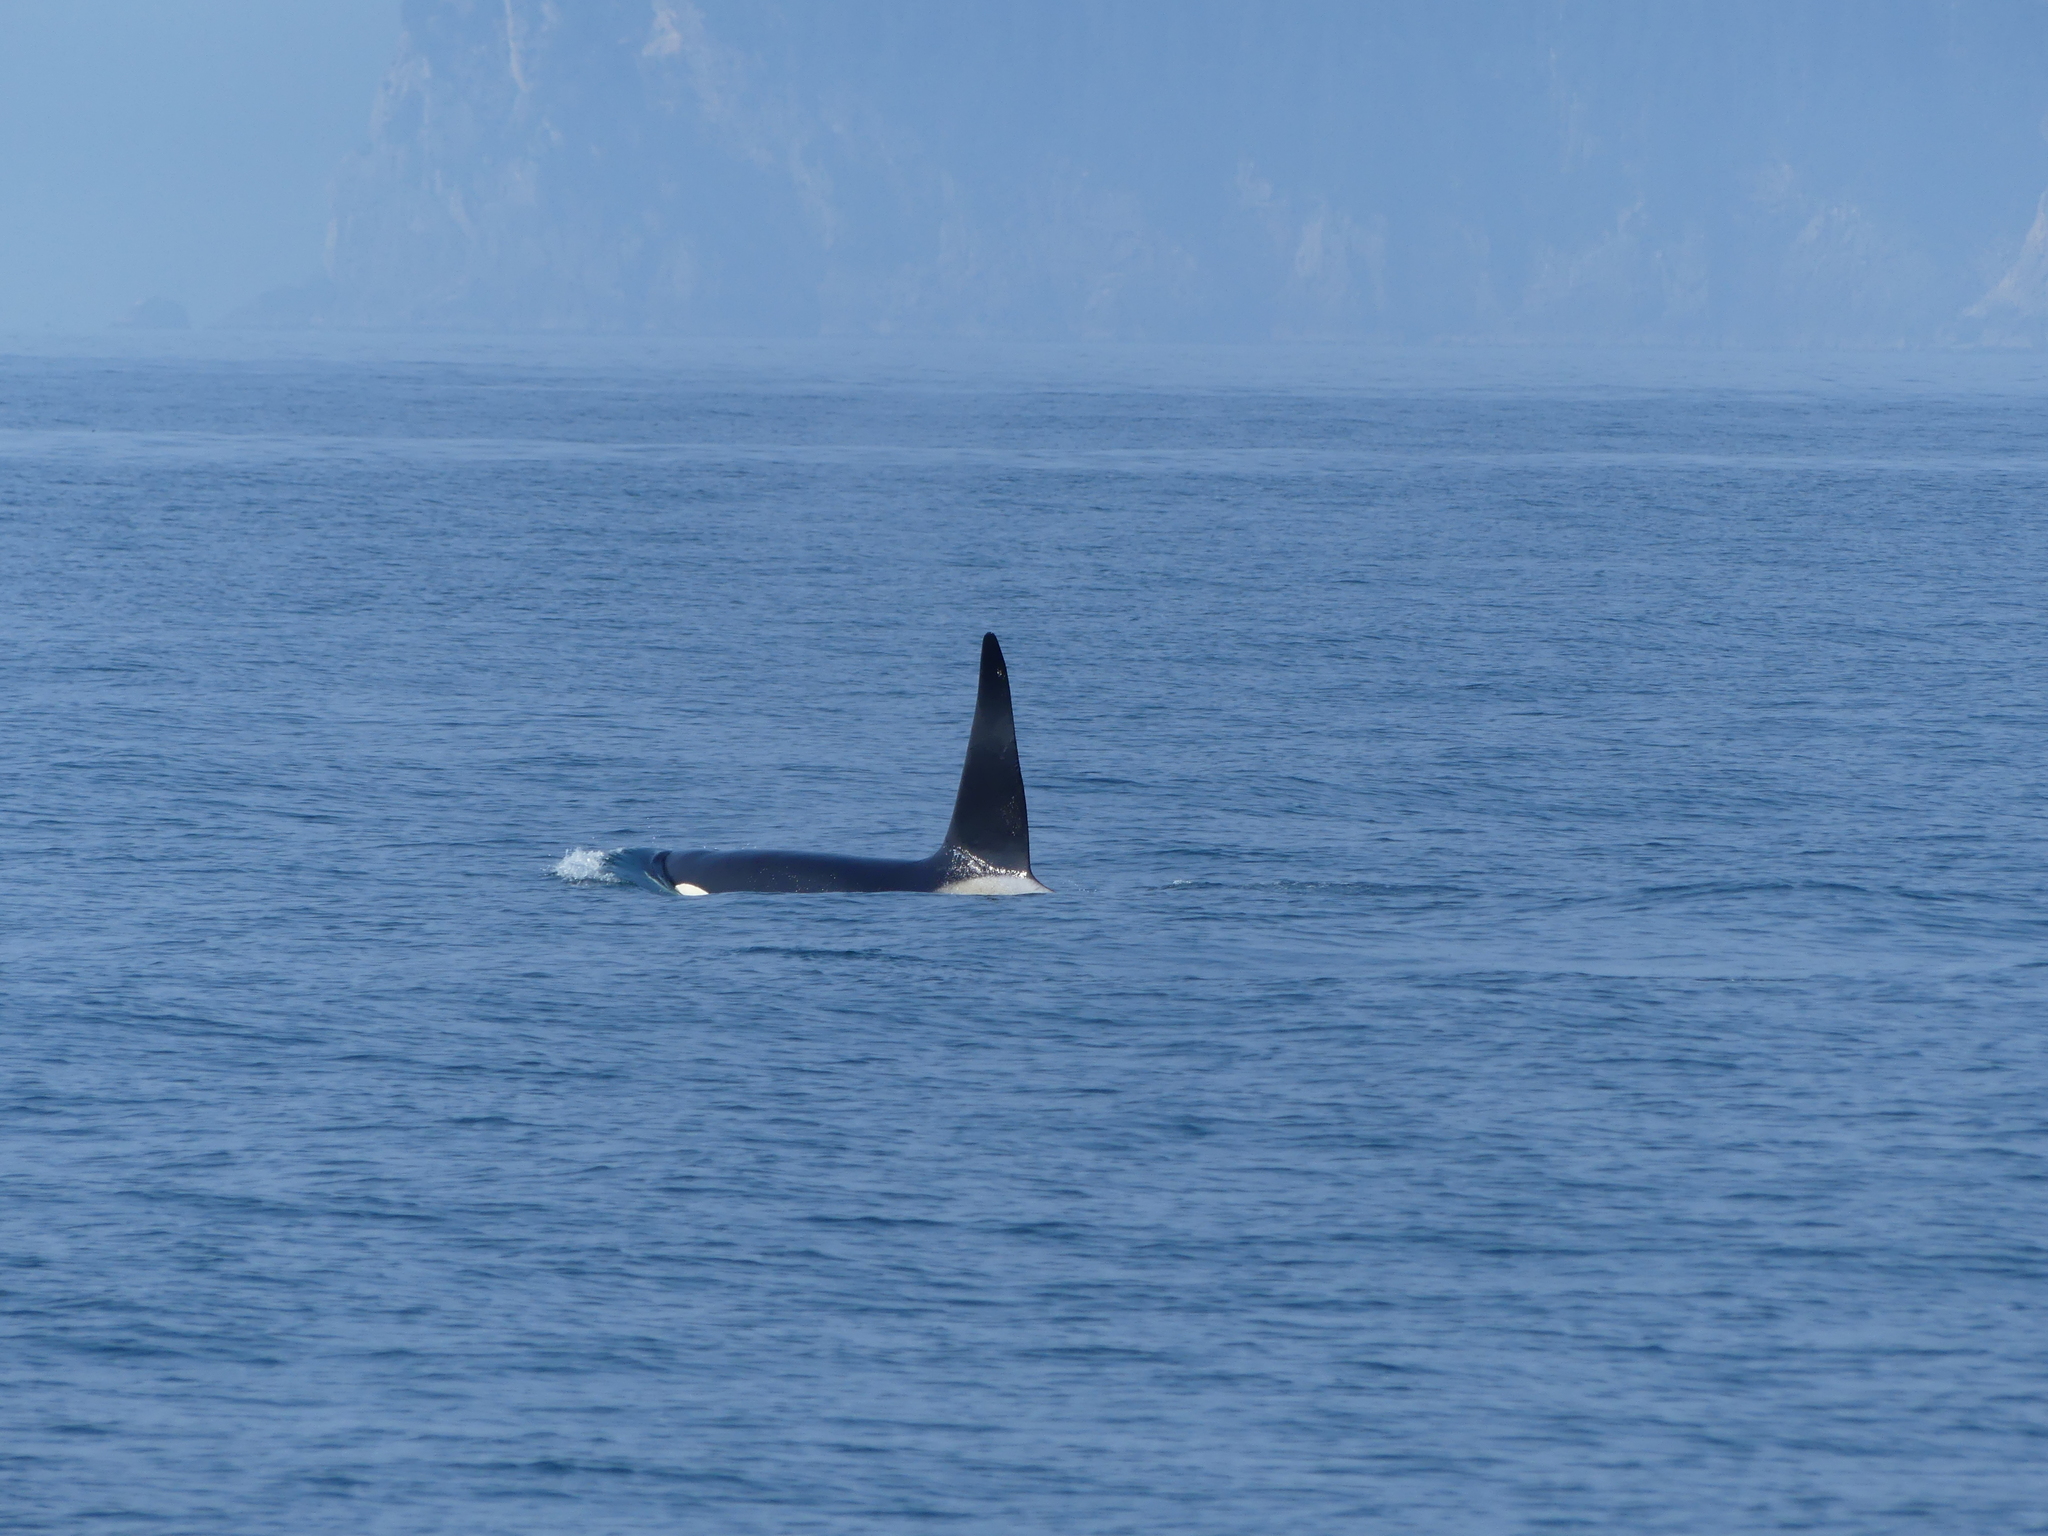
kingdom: Animalia
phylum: Chordata
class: Mammalia
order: Cetacea
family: Delphinidae
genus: Orcinus
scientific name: Orcinus orca
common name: Killer whale
